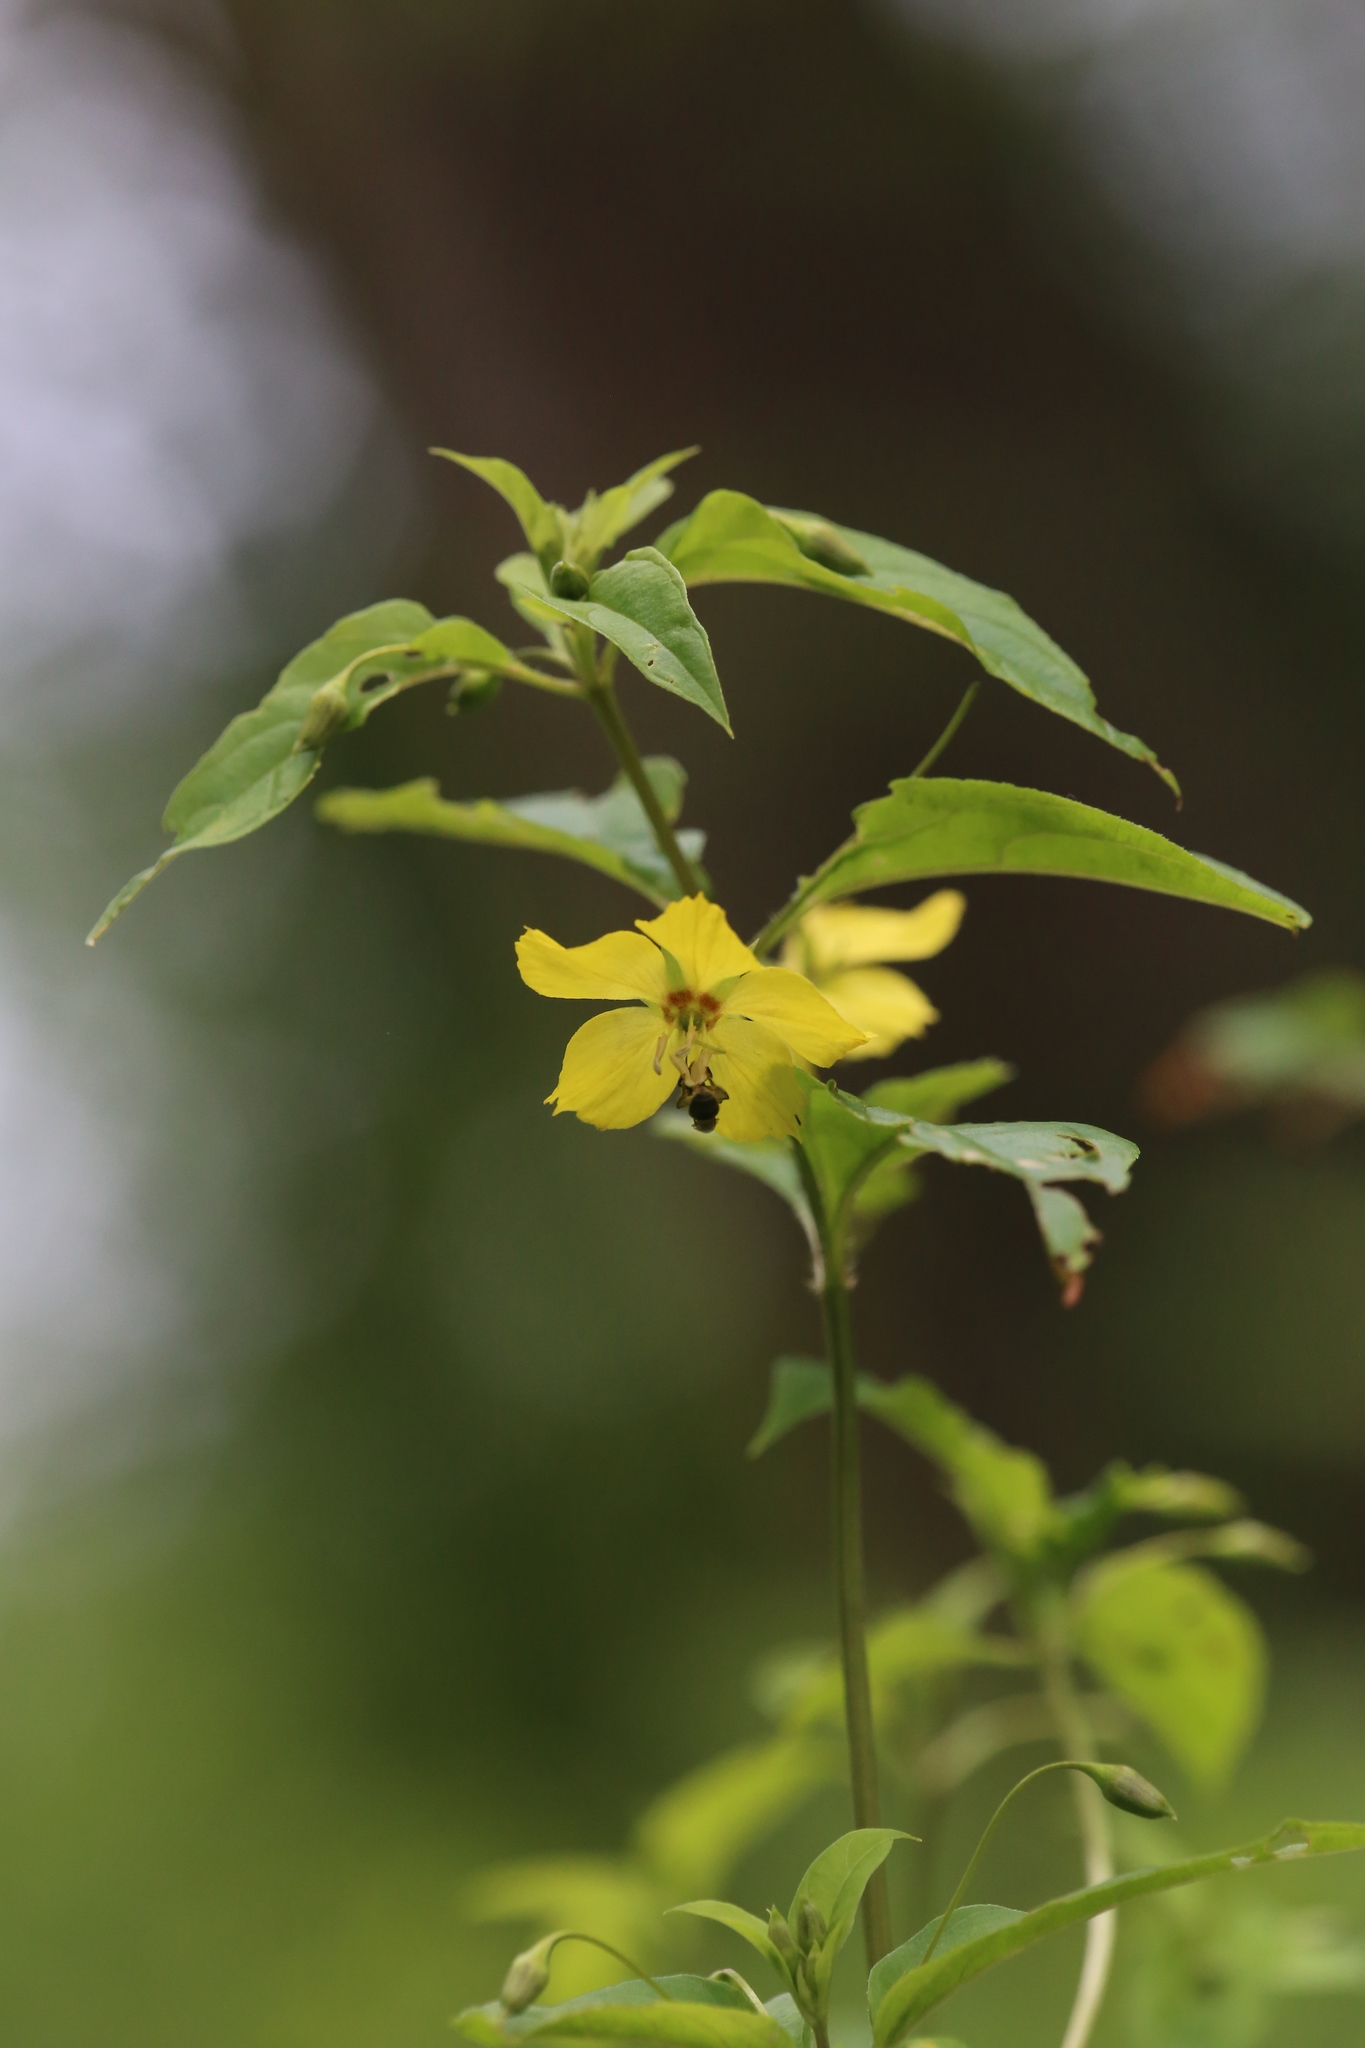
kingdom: Plantae
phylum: Tracheophyta
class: Magnoliopsida
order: Ericales
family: Primulaceae
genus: Lysimachia
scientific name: Lysimachia ciliata
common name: Fringed loosestrife
